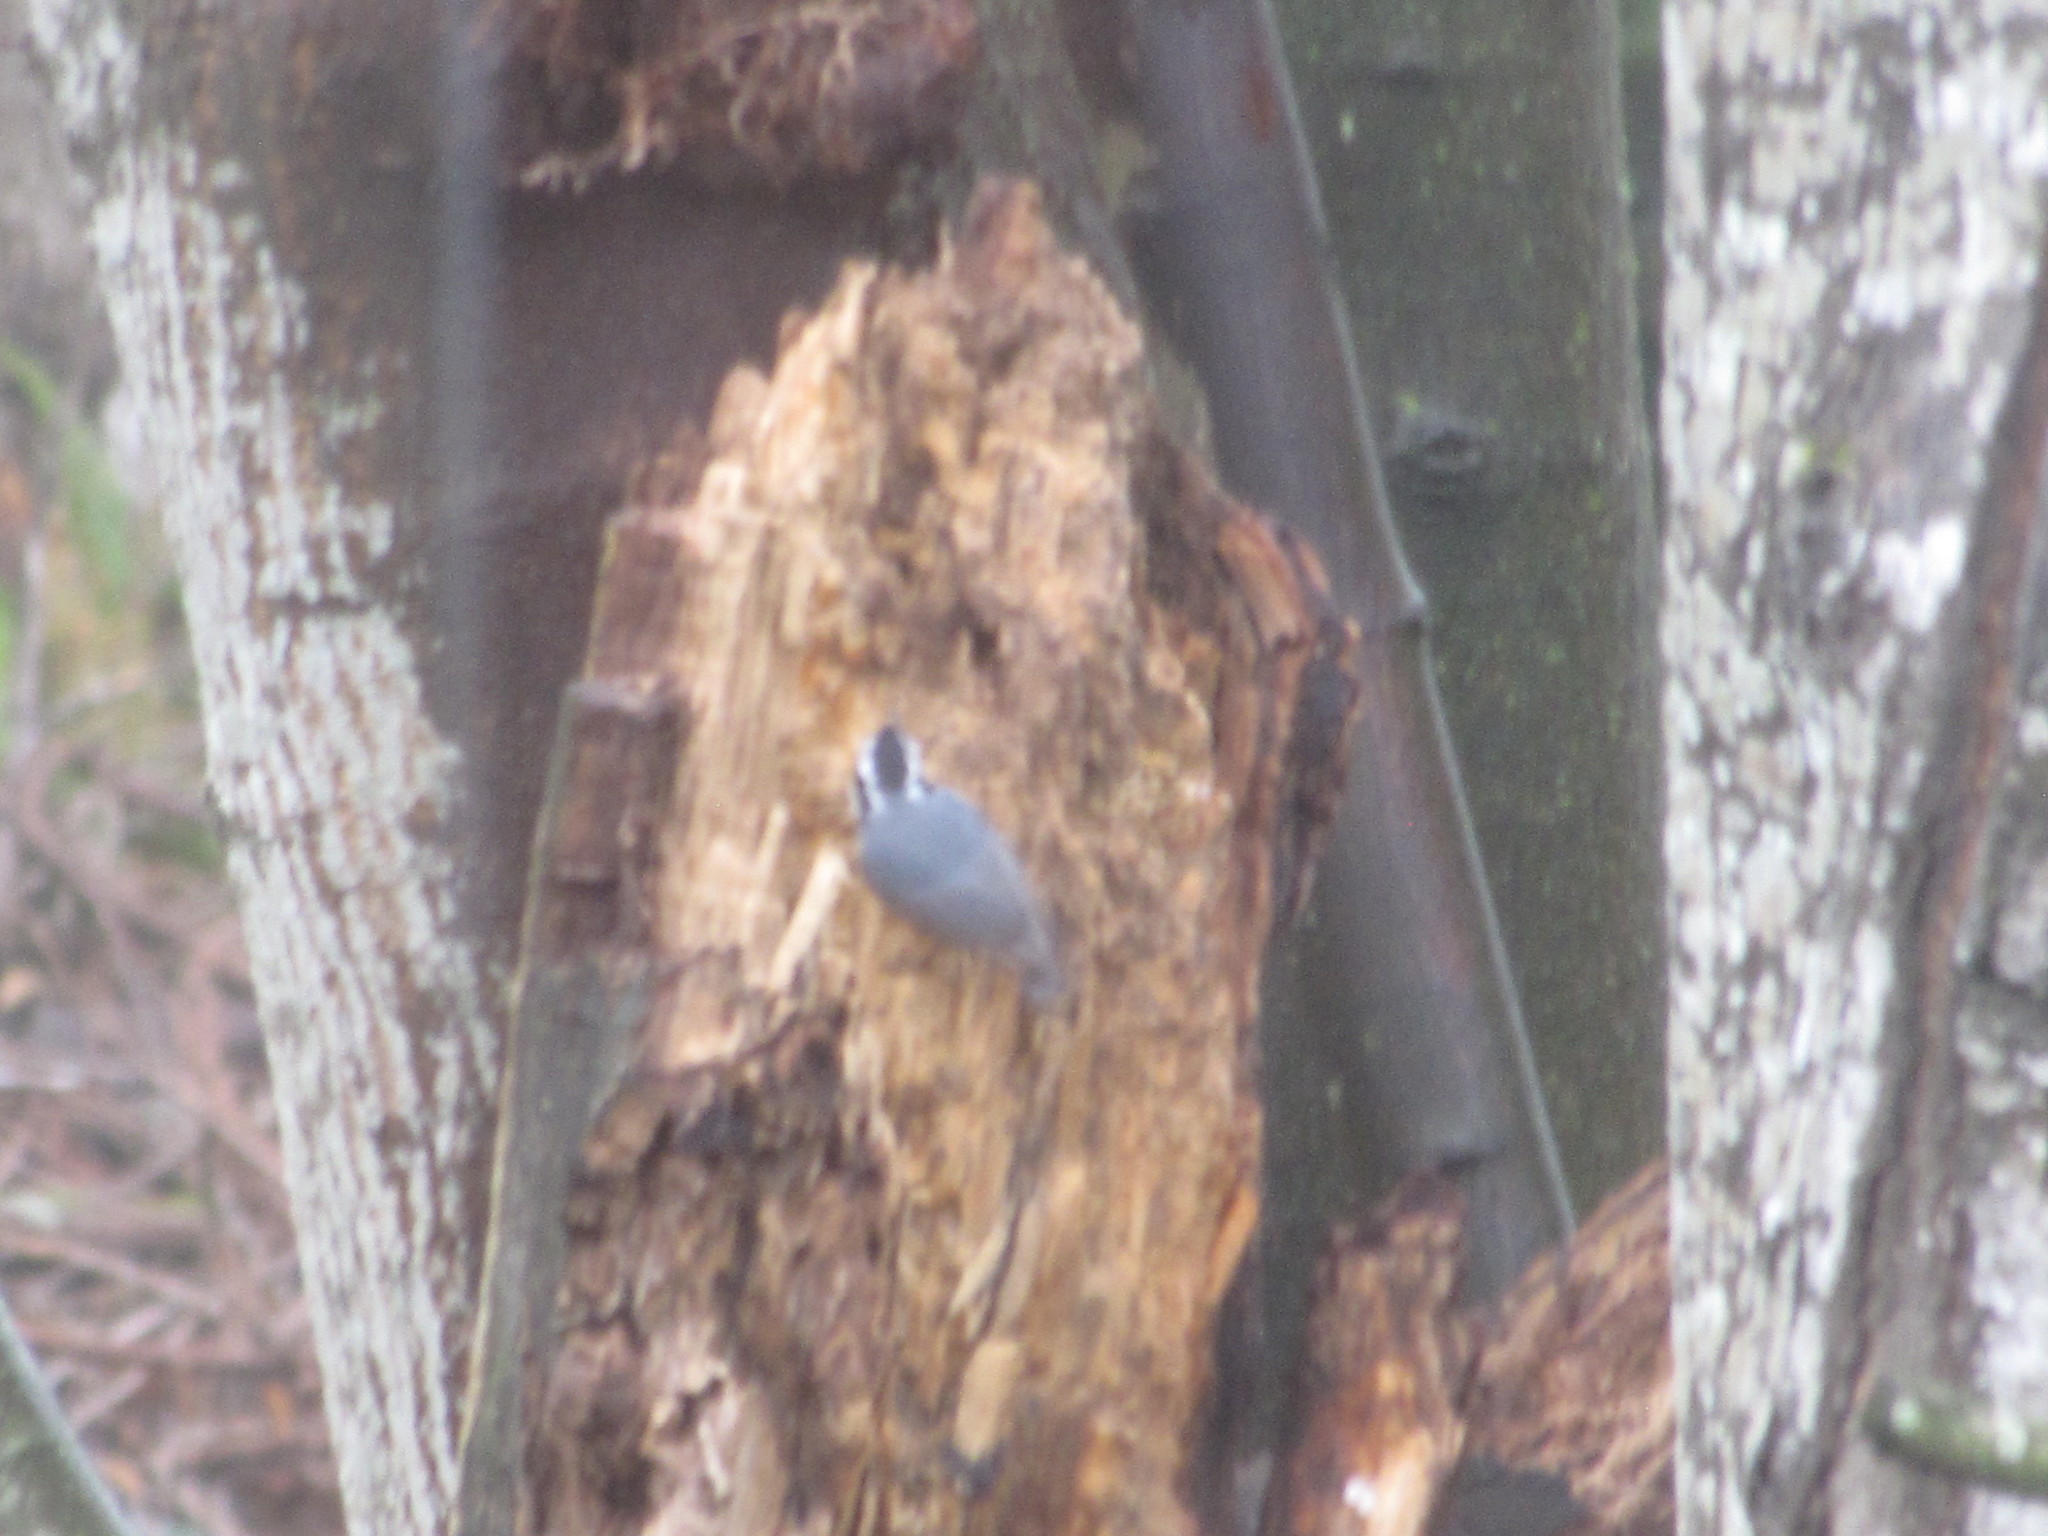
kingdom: Animalia
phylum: Chordata
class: Aves
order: Passeriformes
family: Sittidae
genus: Sitta
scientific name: Sitta canadensis
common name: Red-breasted nuthatch
